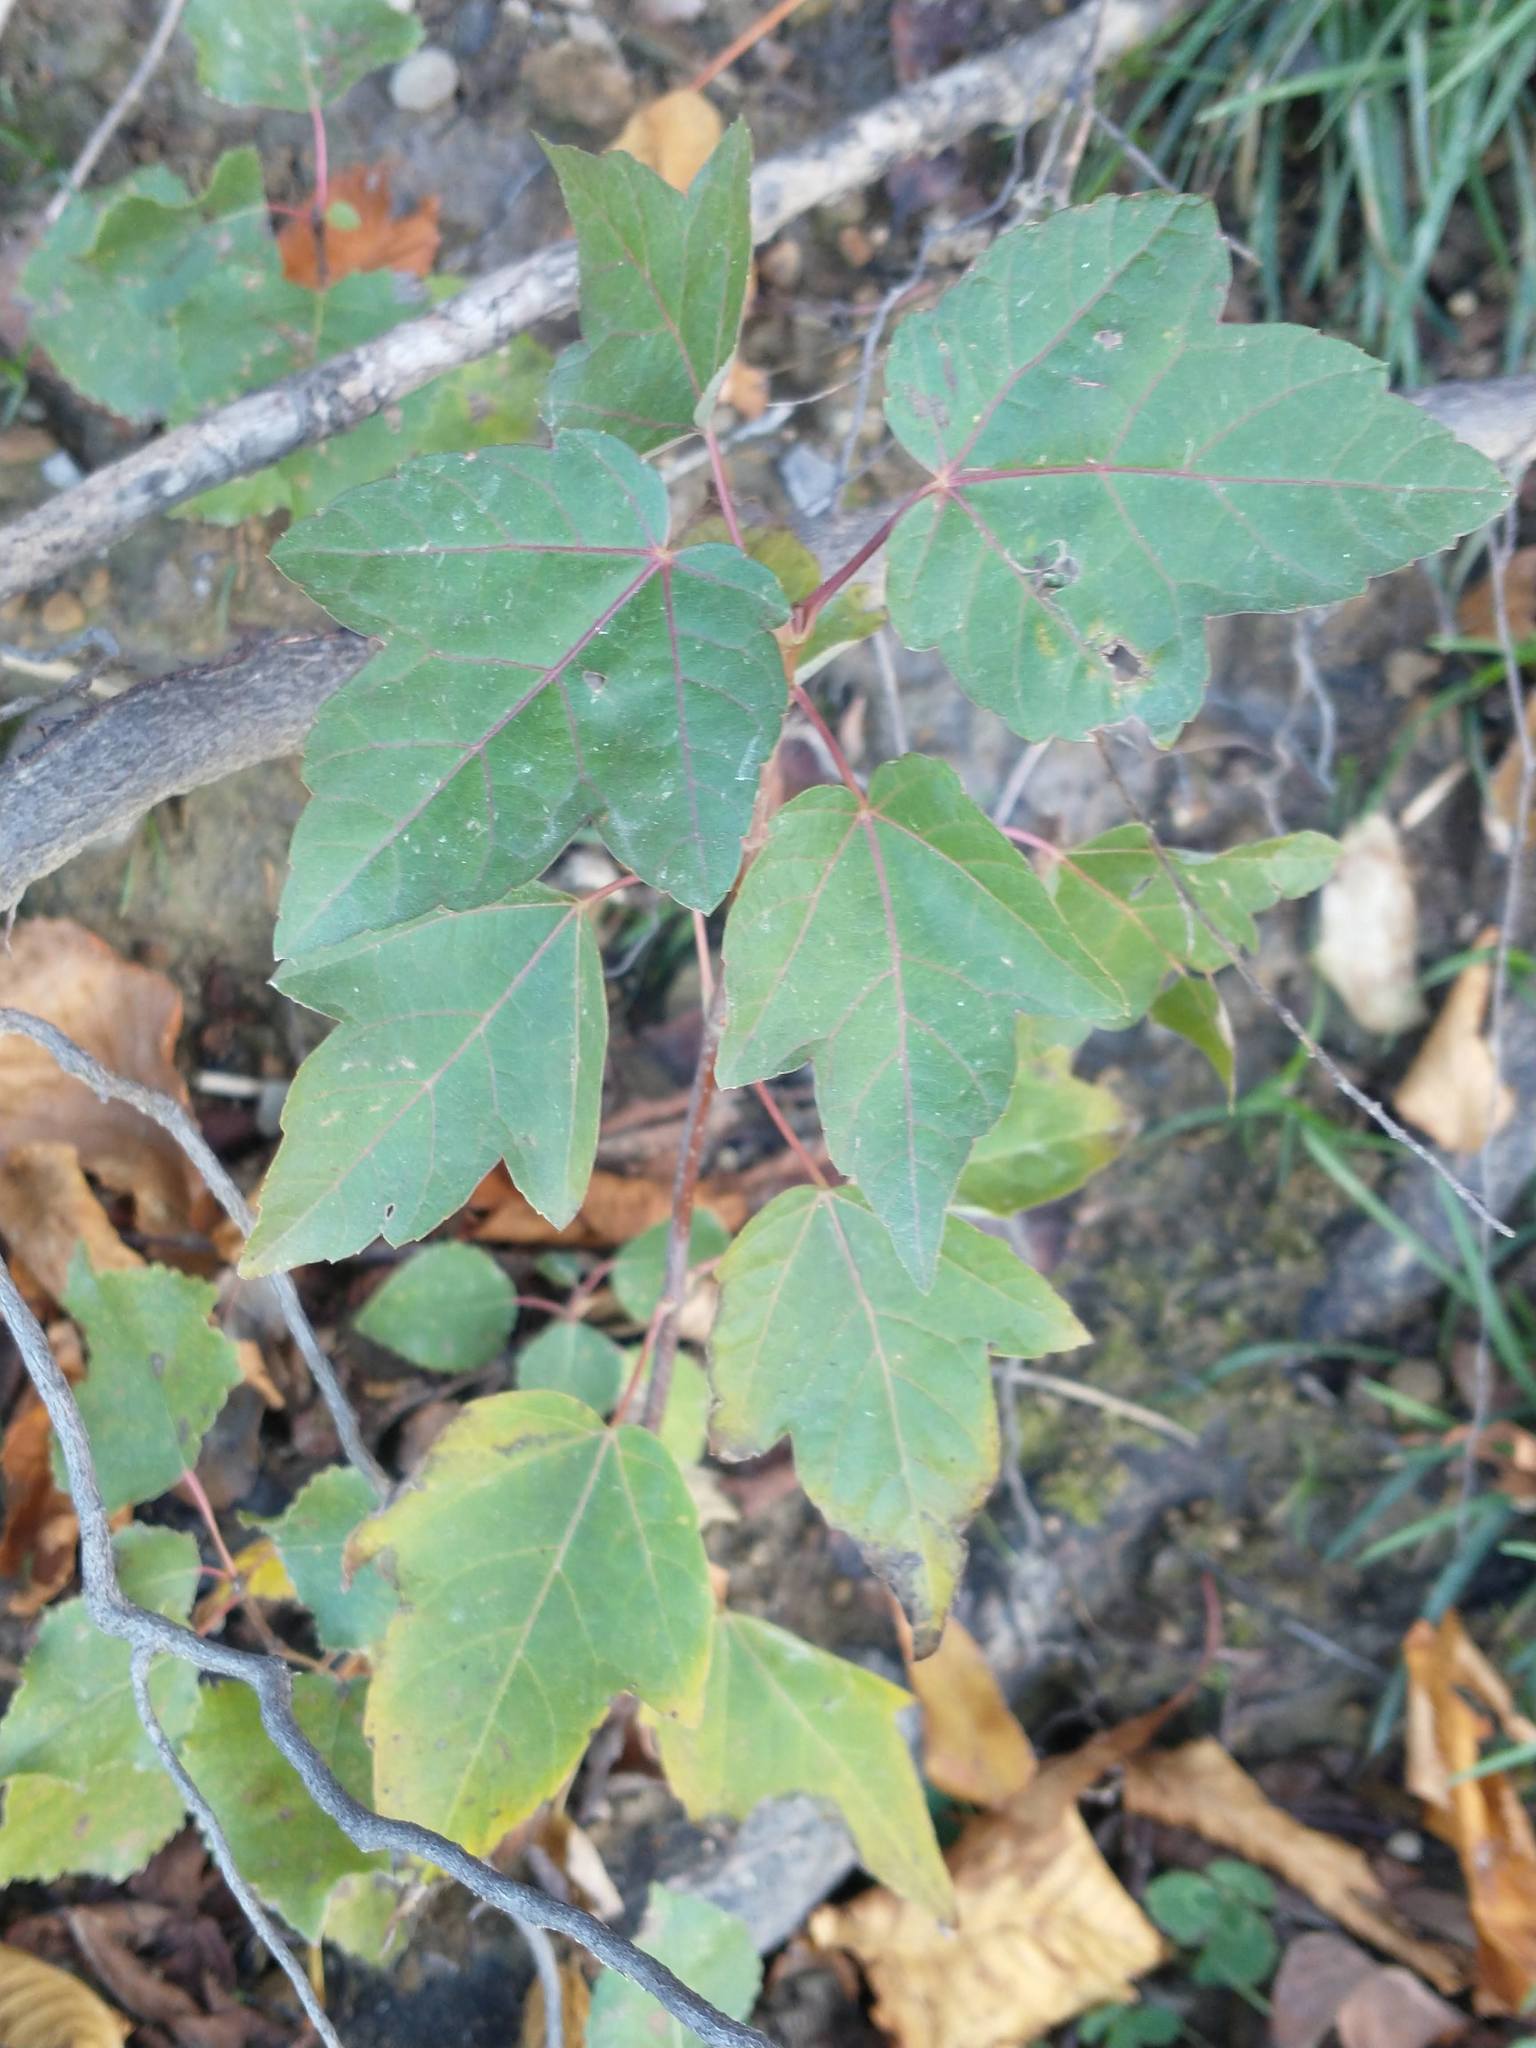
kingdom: Plantae
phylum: Tracheophyta
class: Magnoliopsida
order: Sapindales
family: Sapindaceae
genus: Acer
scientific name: Acer rubrum
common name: Red maple
